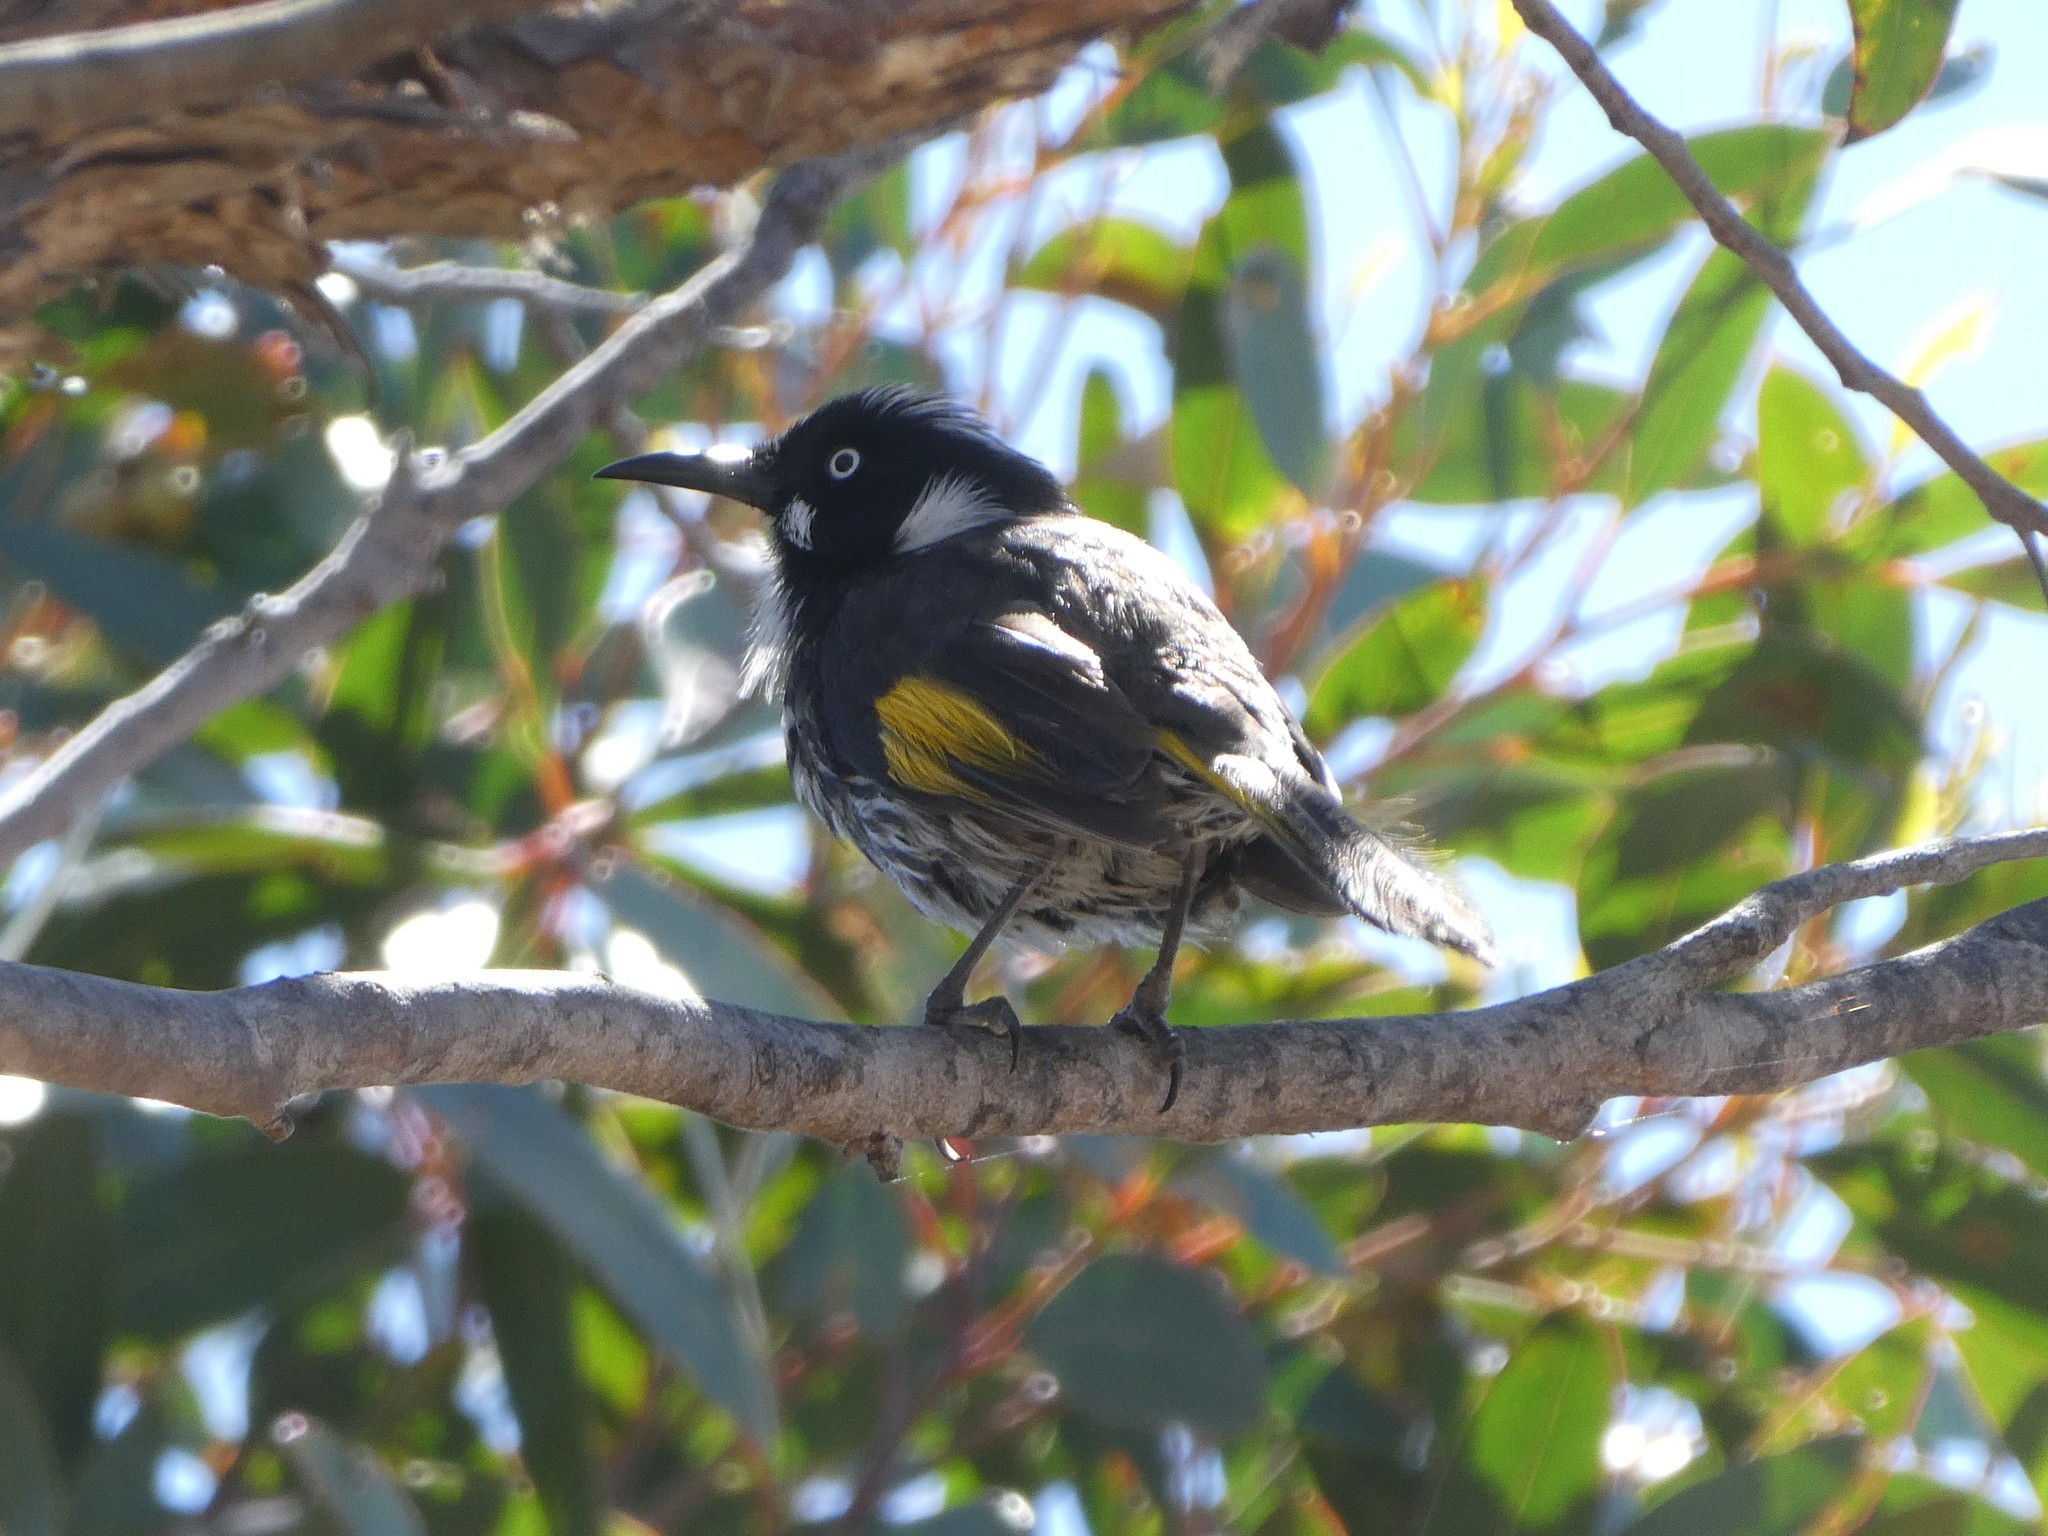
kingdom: Animalia
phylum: Chordata
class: Aves
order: Passeriformes
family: Meliphagidae
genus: Phylidonyris
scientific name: Phylidonyris novaehollandiae
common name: New holland honeyeater
